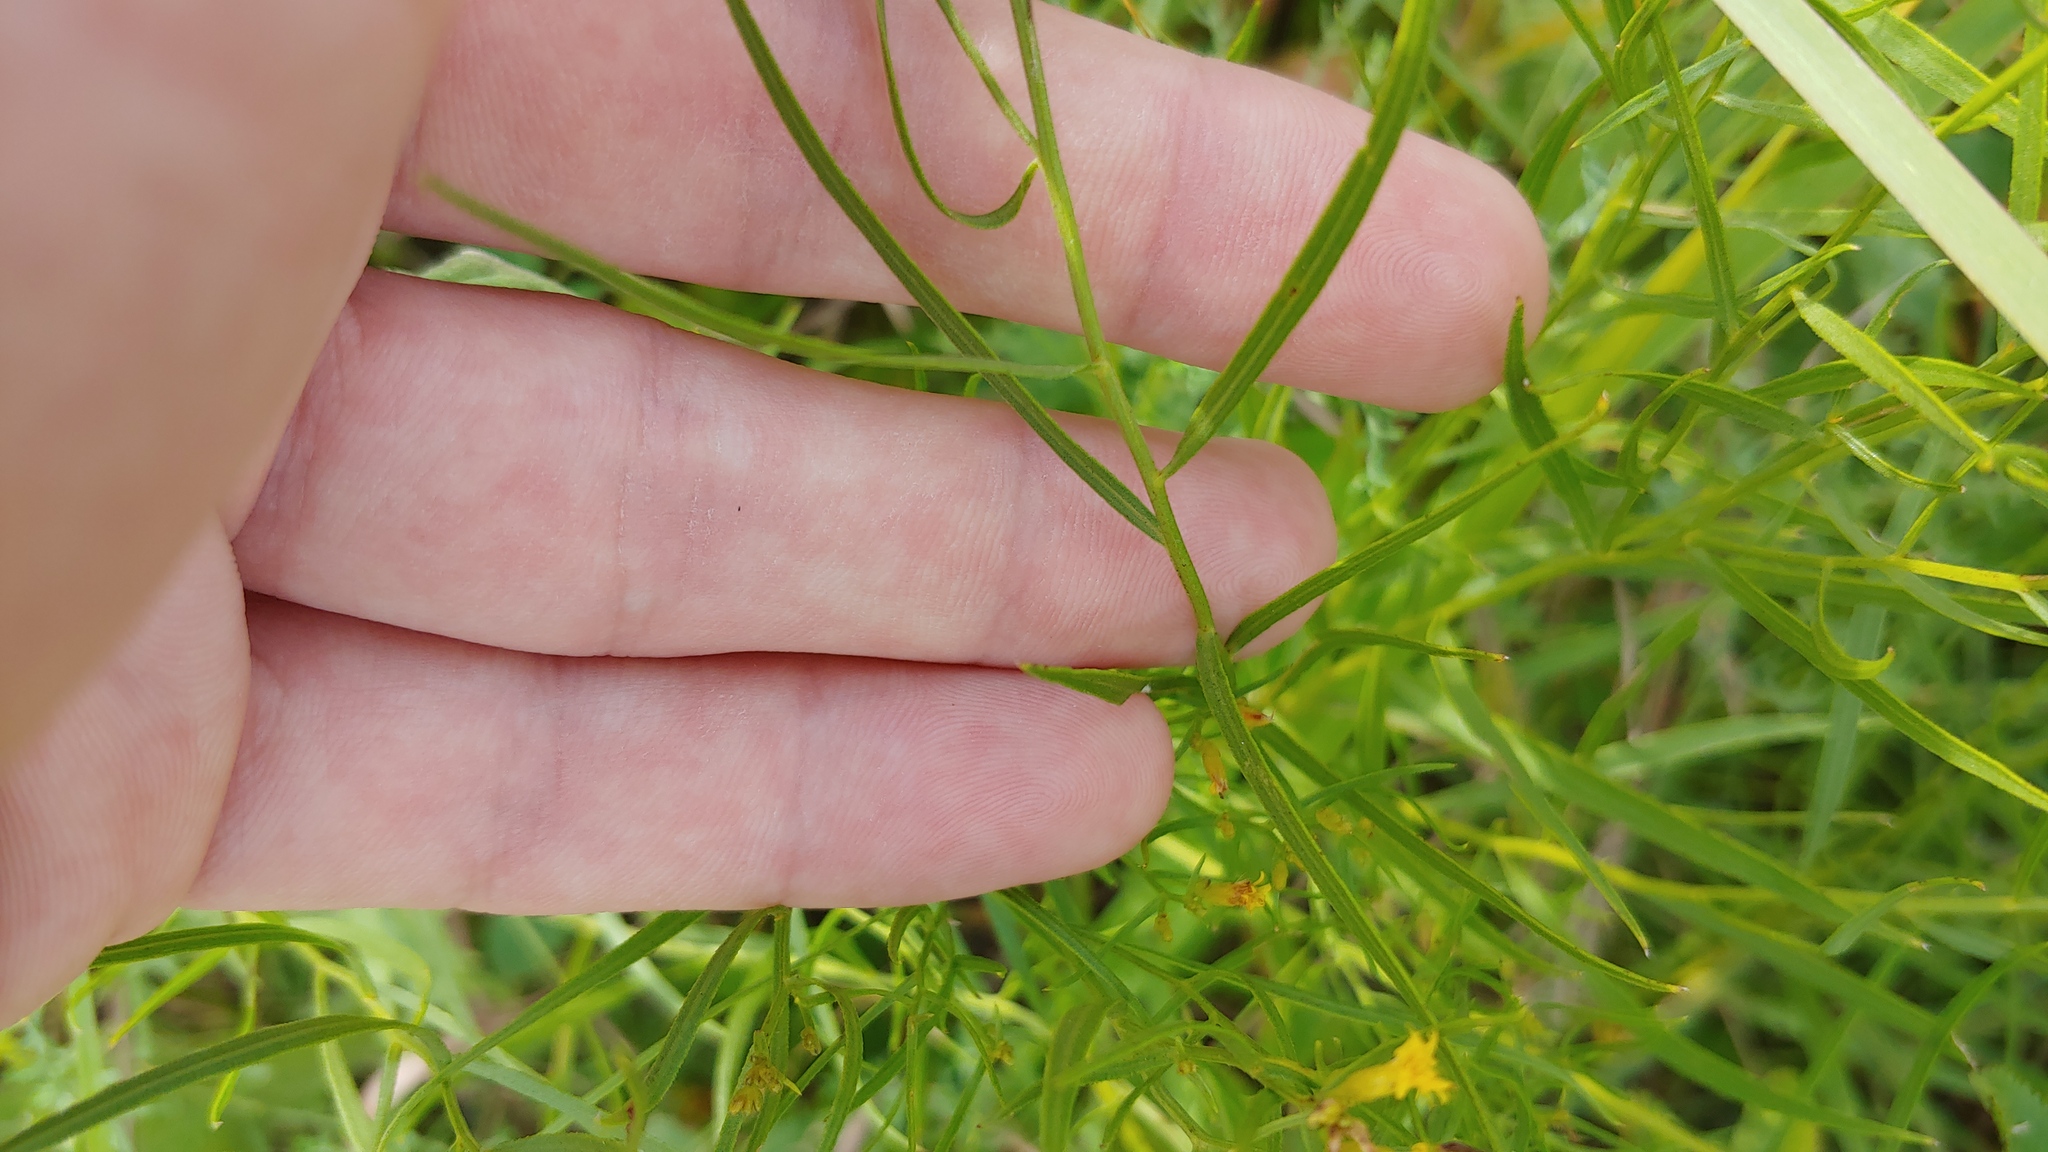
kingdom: Plantae
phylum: Tracheophyta
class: Magnoliopsida
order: Asterales
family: Asteraceae
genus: Euthamia
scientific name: Euthamia gymnospermoides
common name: Great plains goldentop
